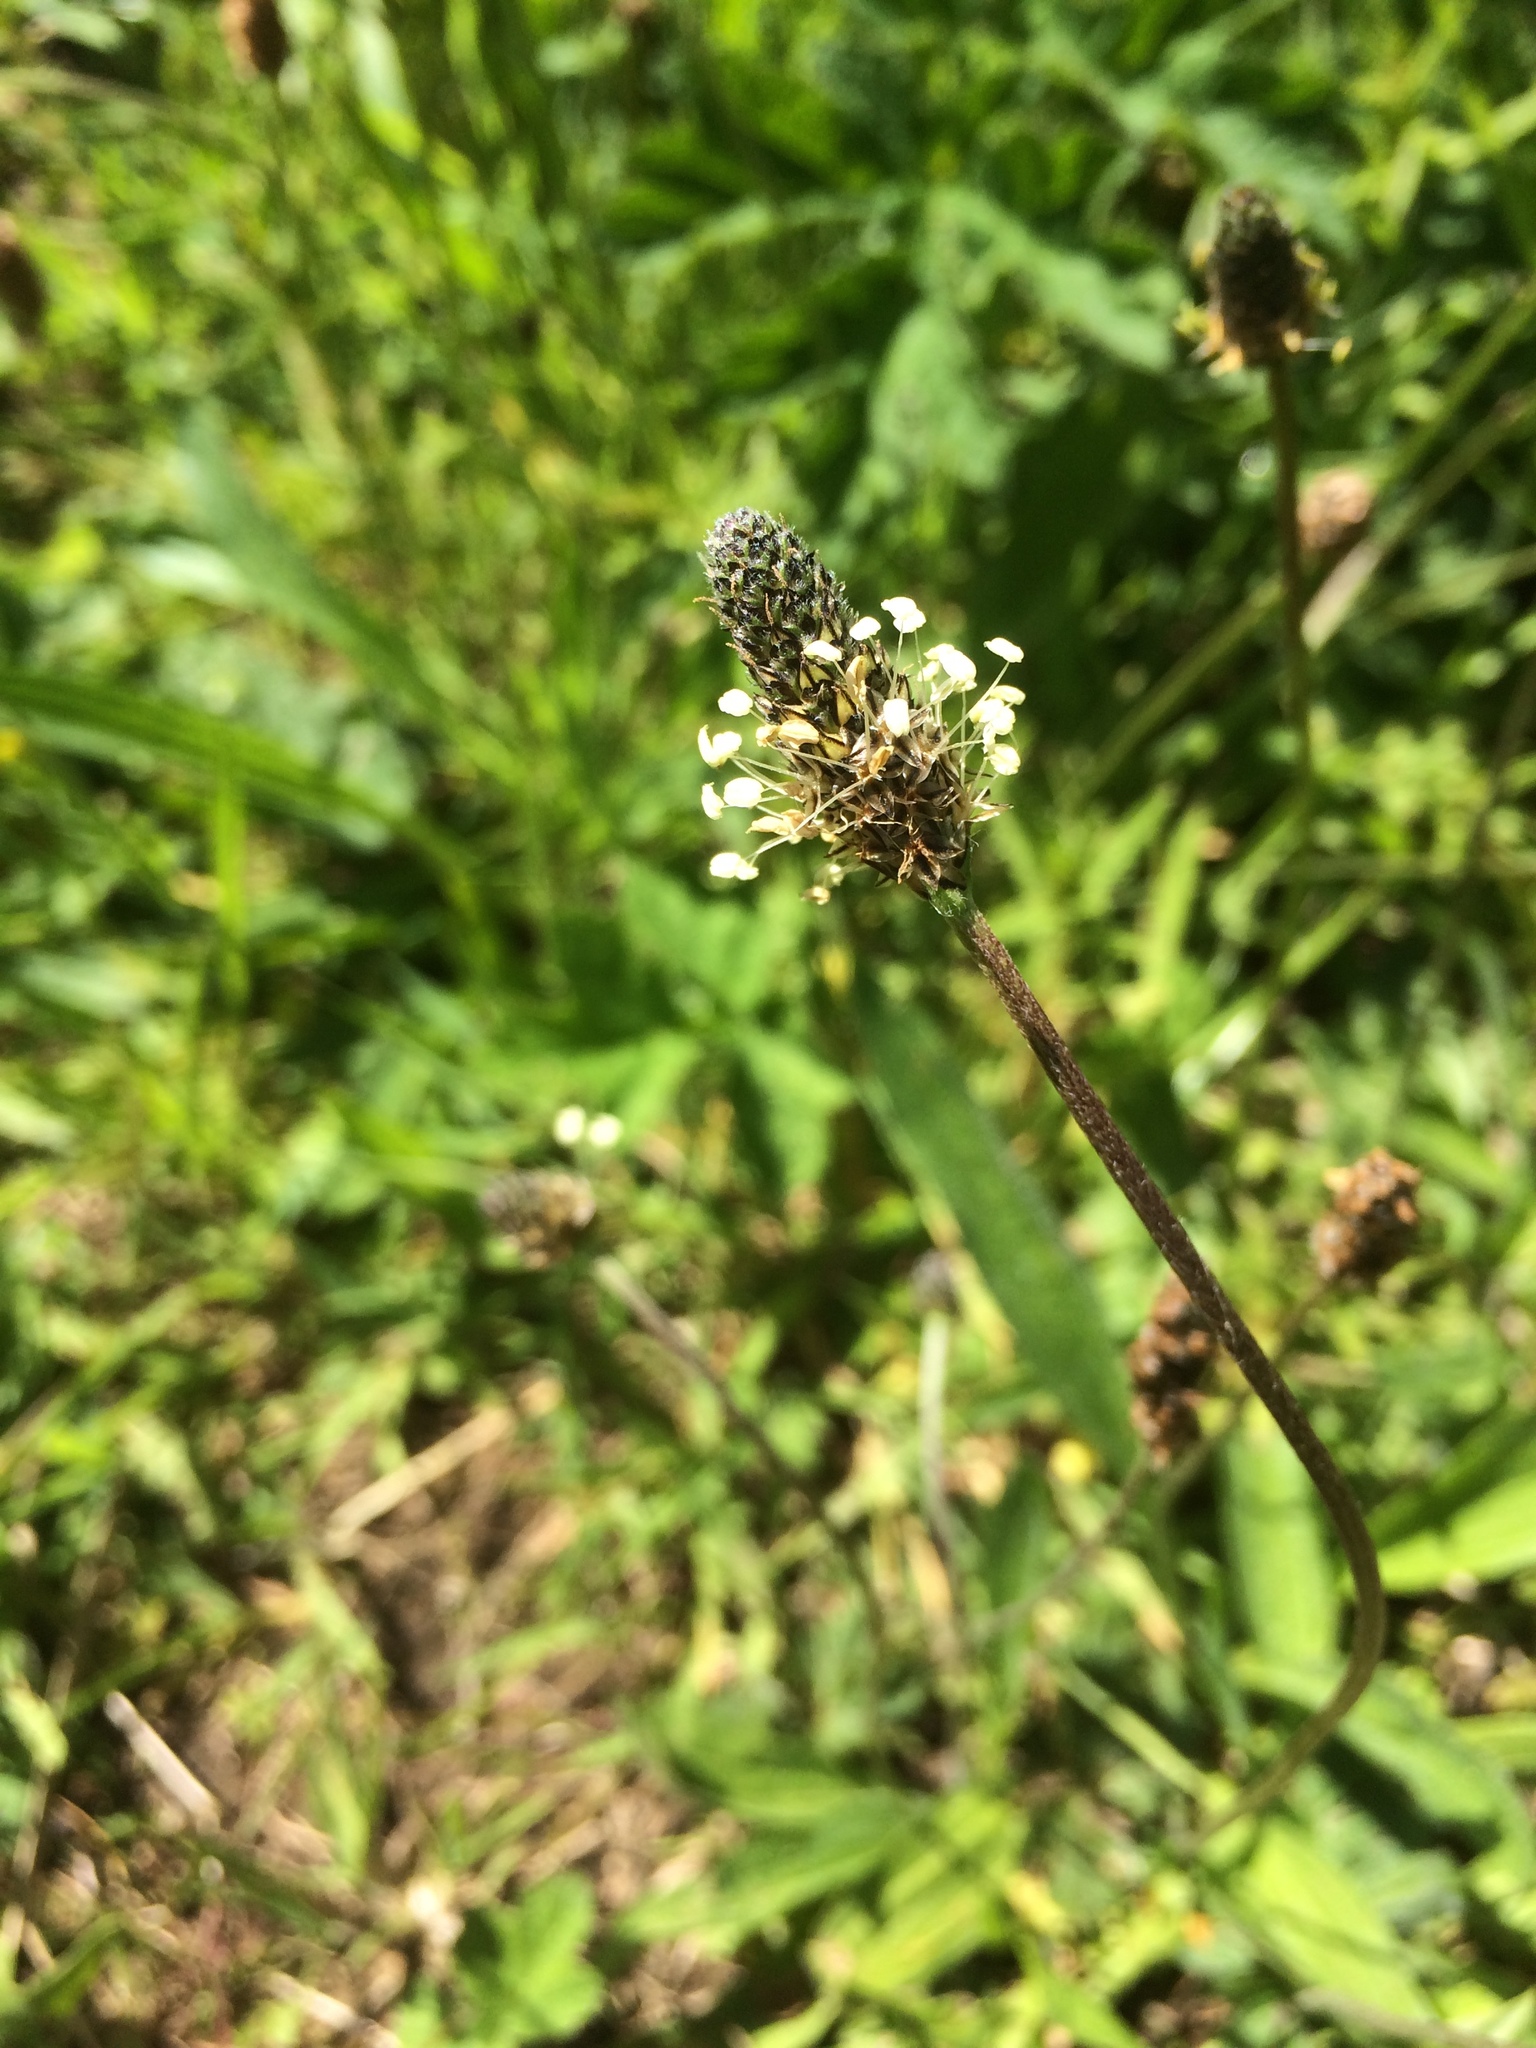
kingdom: Plantae
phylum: Tracheophyta
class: Magnoliopsida
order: Lamiales
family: Plantaginaceae
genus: Plantago
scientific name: Plantago lanceolata
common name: Ribwort plantain
